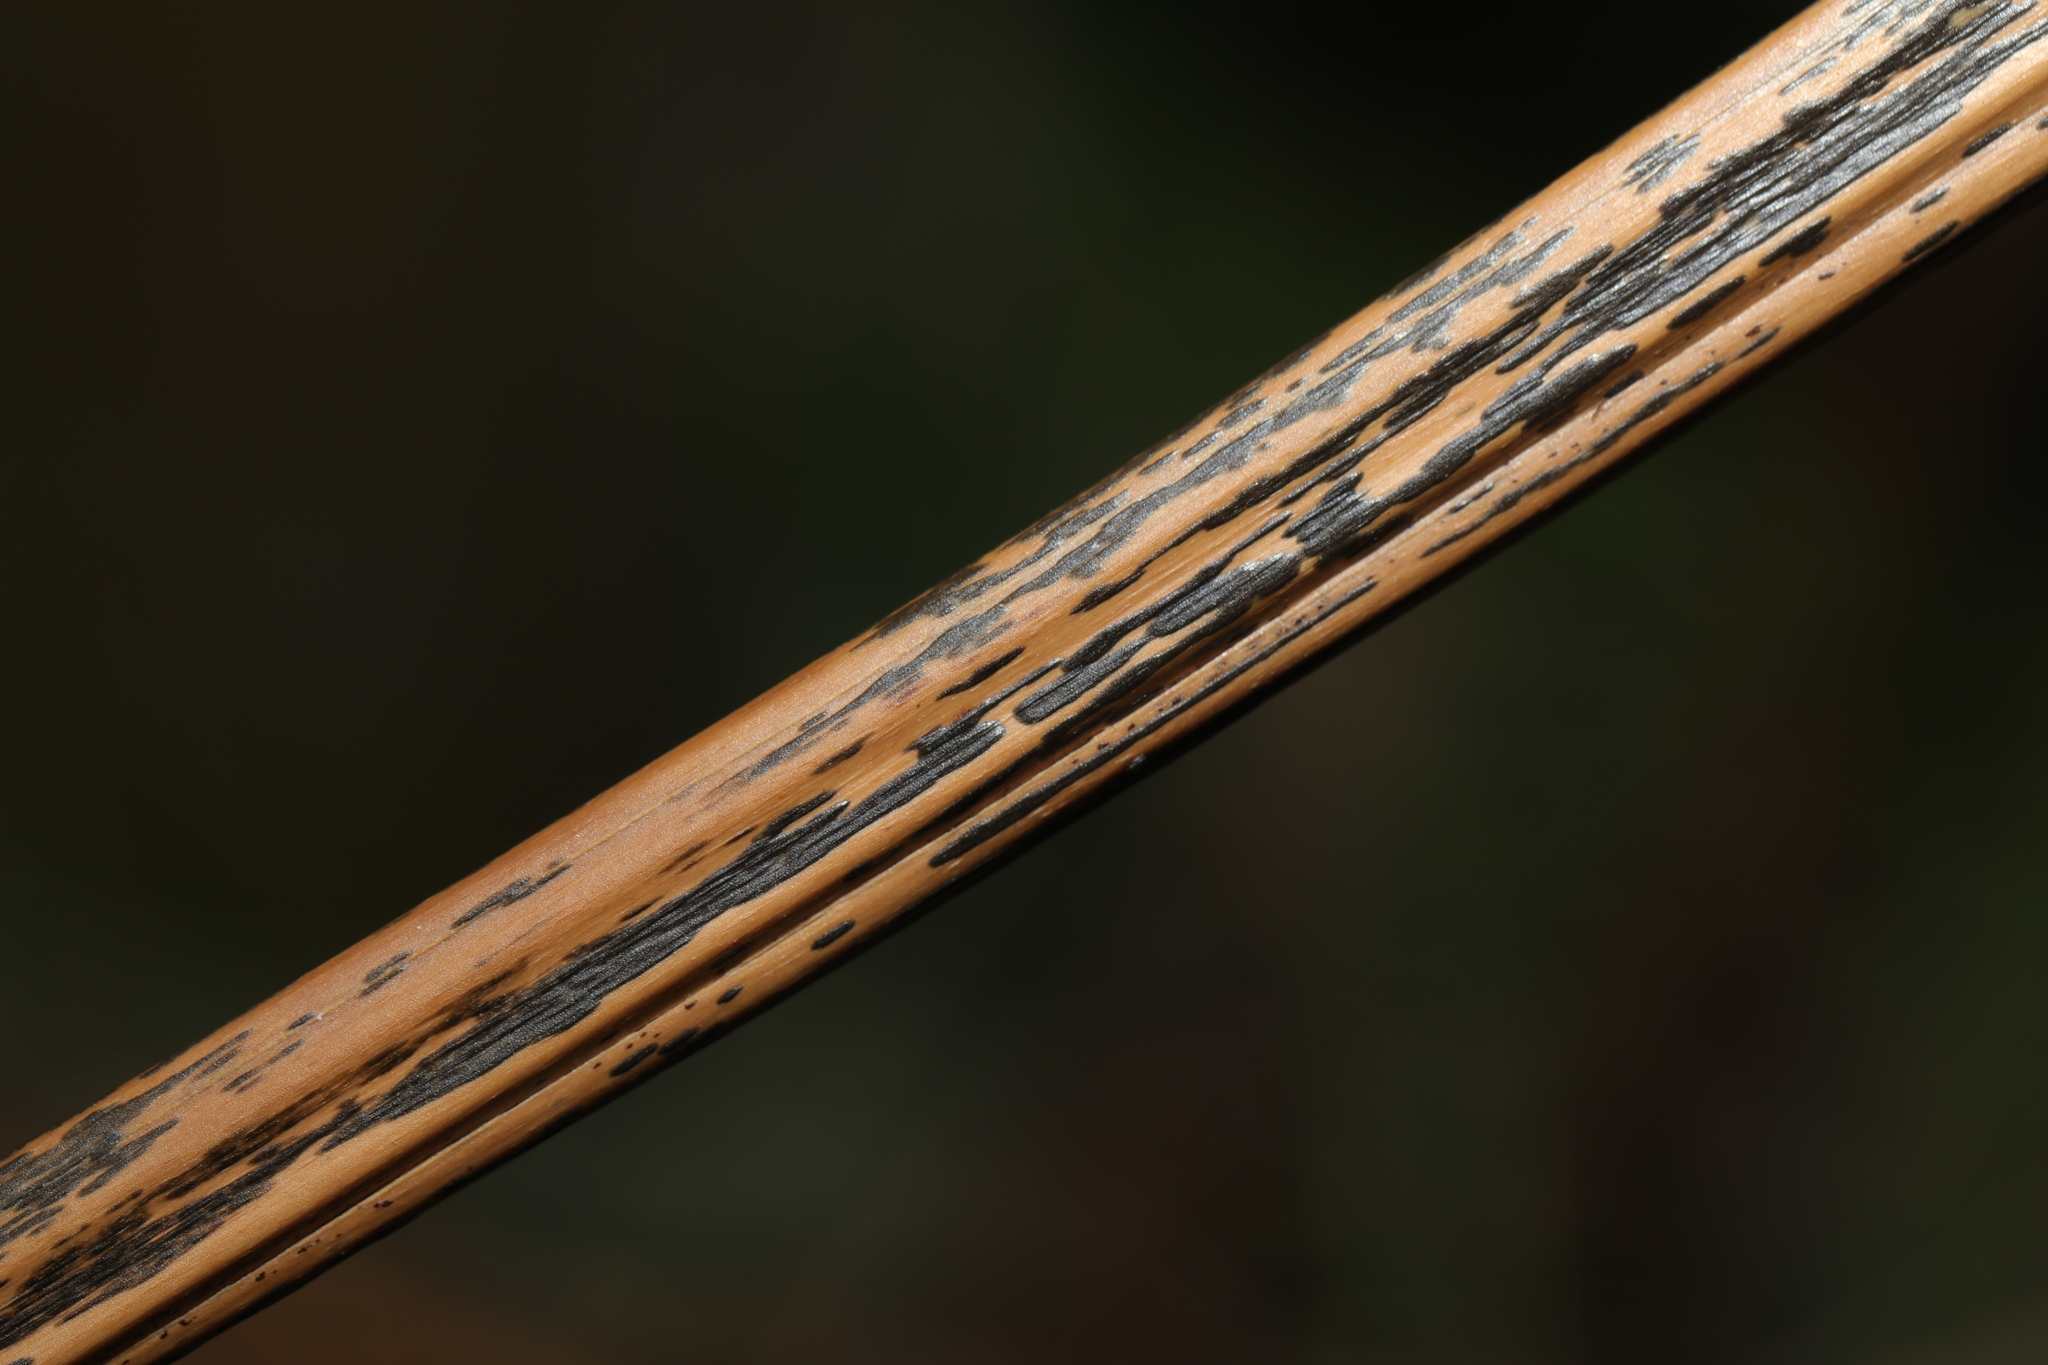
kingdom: Fungi
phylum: Ascomycota
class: Dothideomycetes
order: Pleosporales
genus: Rhopographus
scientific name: Rhopographus filicinus
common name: Bracken map
